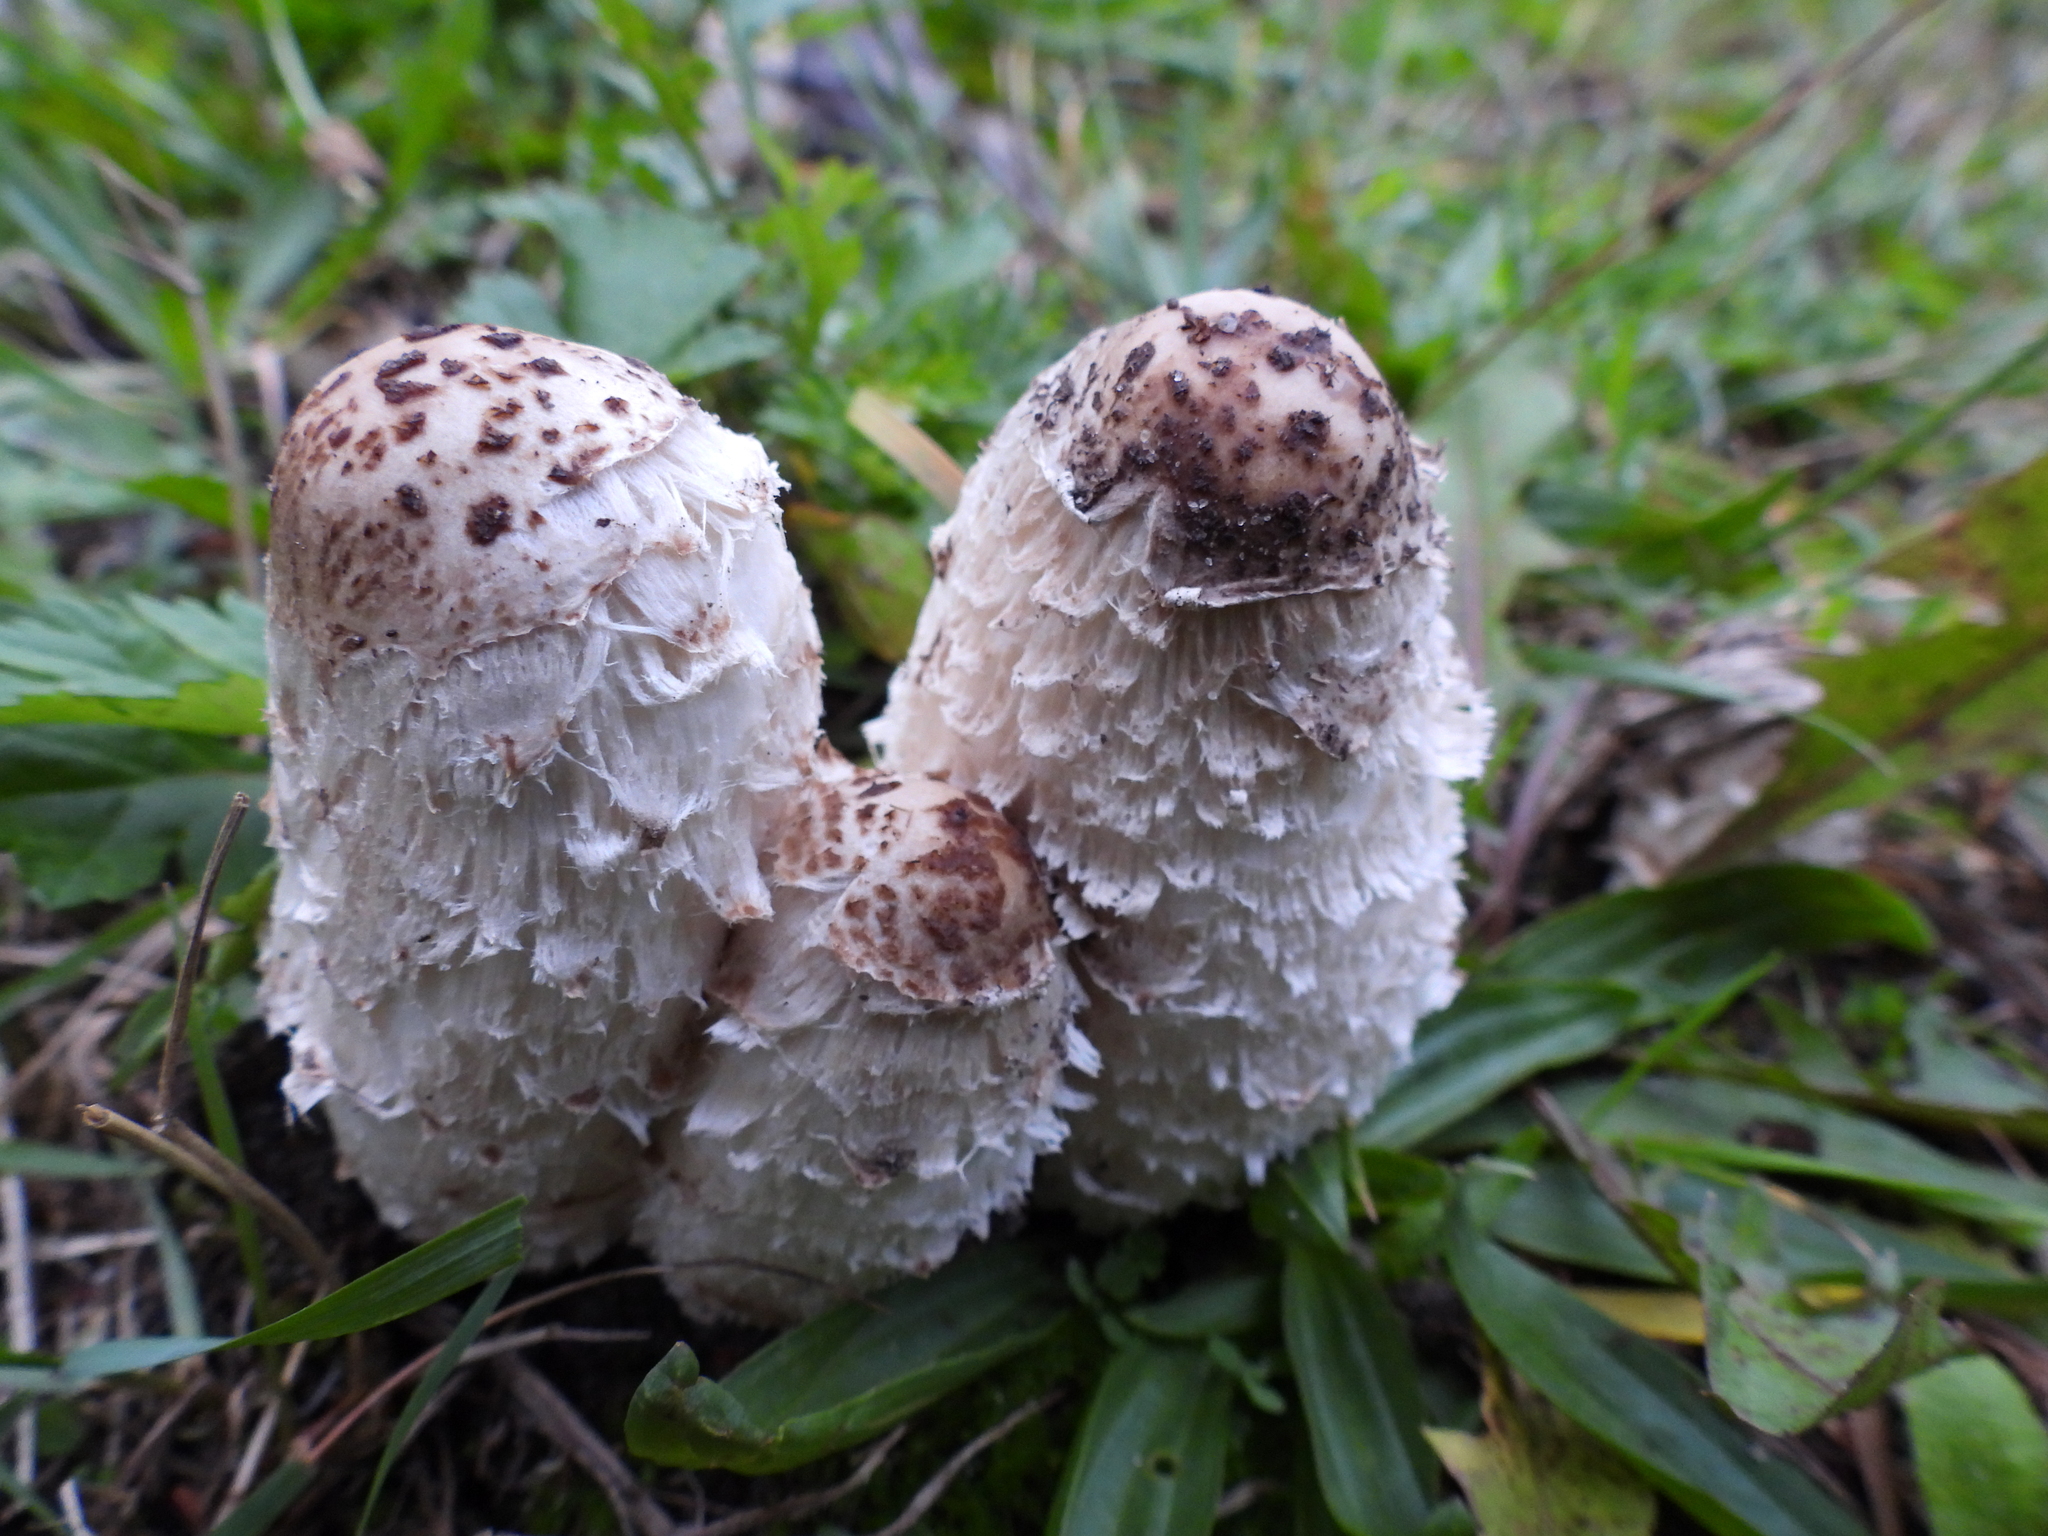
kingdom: Fungi
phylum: Basidiomycota
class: Agaricomycetes
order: Agaricales
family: Agaricaceae
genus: Coprinus
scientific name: Coprinus comatus
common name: Lawyer's wig
